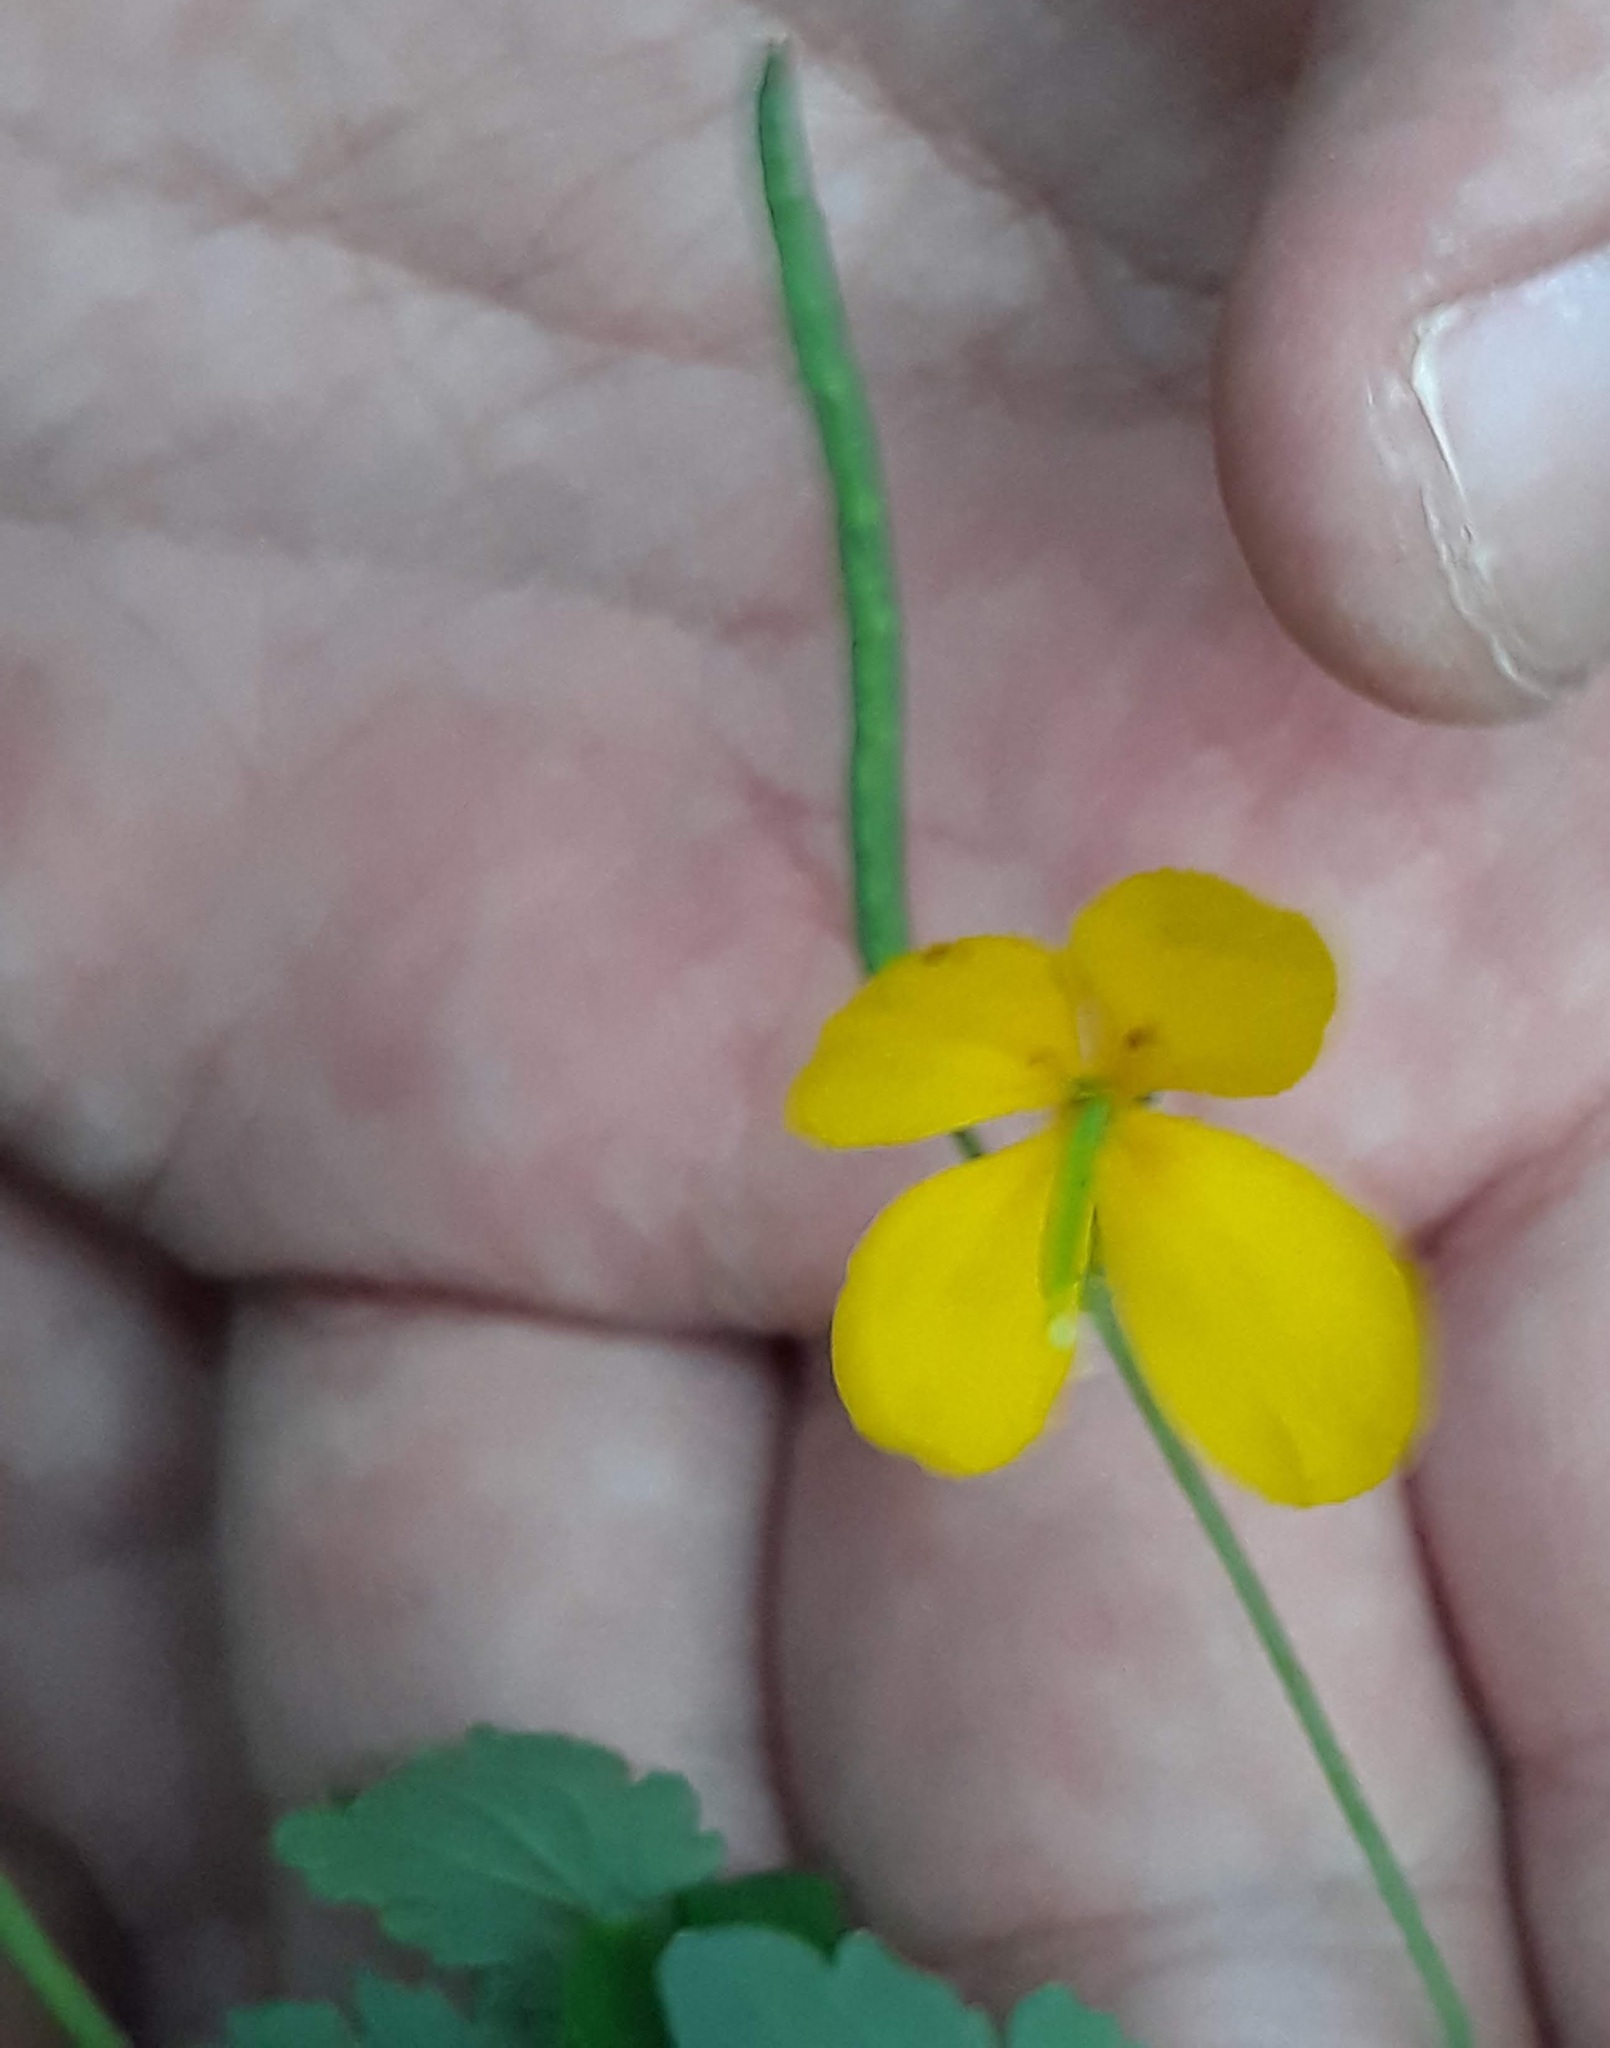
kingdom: Plantae
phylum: Tracheophyta
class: Magnoliopsida
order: Ranunculales
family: Papaveraceae
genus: Chelidonium
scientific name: Chelidonium majus
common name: Greater celandine
